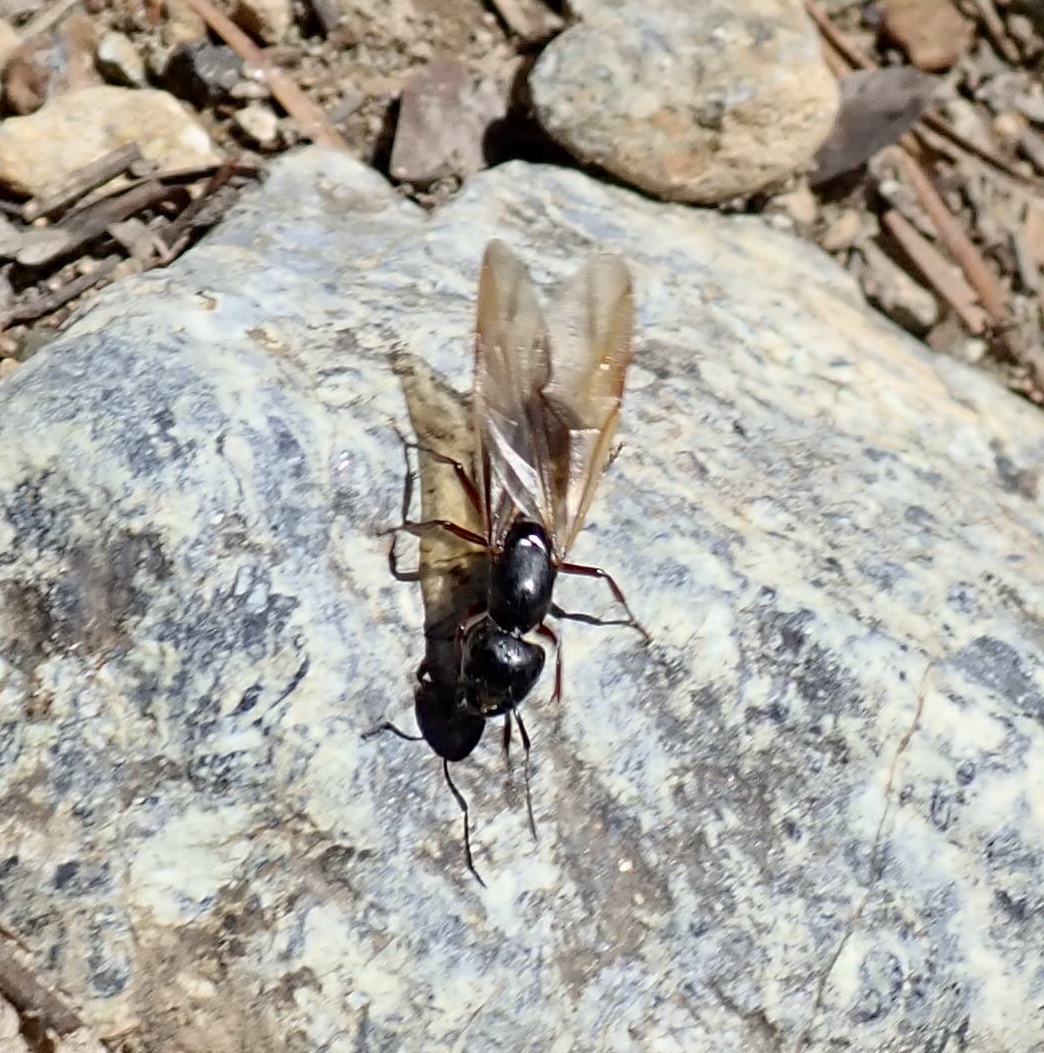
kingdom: Animalia
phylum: Arthropoda
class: Insecta
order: Hymenoptera
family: Formicidae
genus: Camponotus
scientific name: Camponotus modoc
